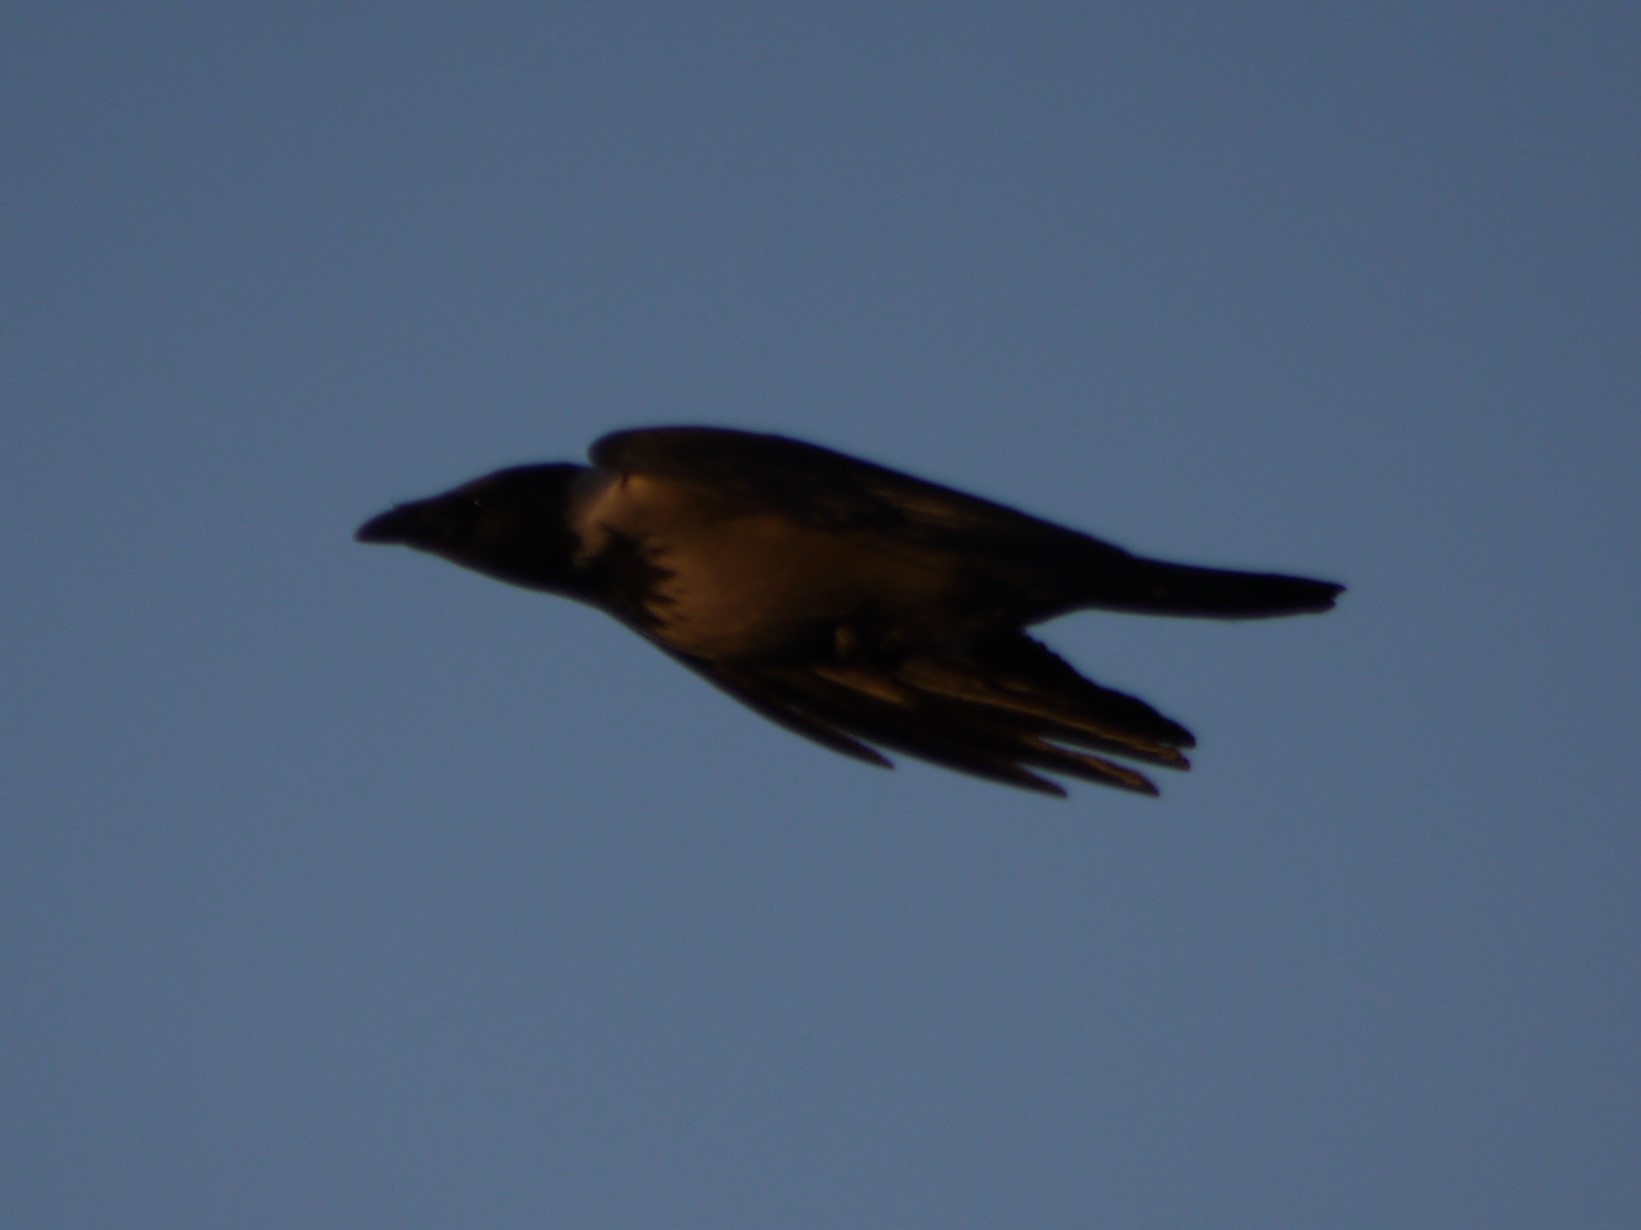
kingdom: Animalia
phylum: Chordata
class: Aves
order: Passeriformes
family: Corvidae
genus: Corvus
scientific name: Corvus cornix
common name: Hooded crow
